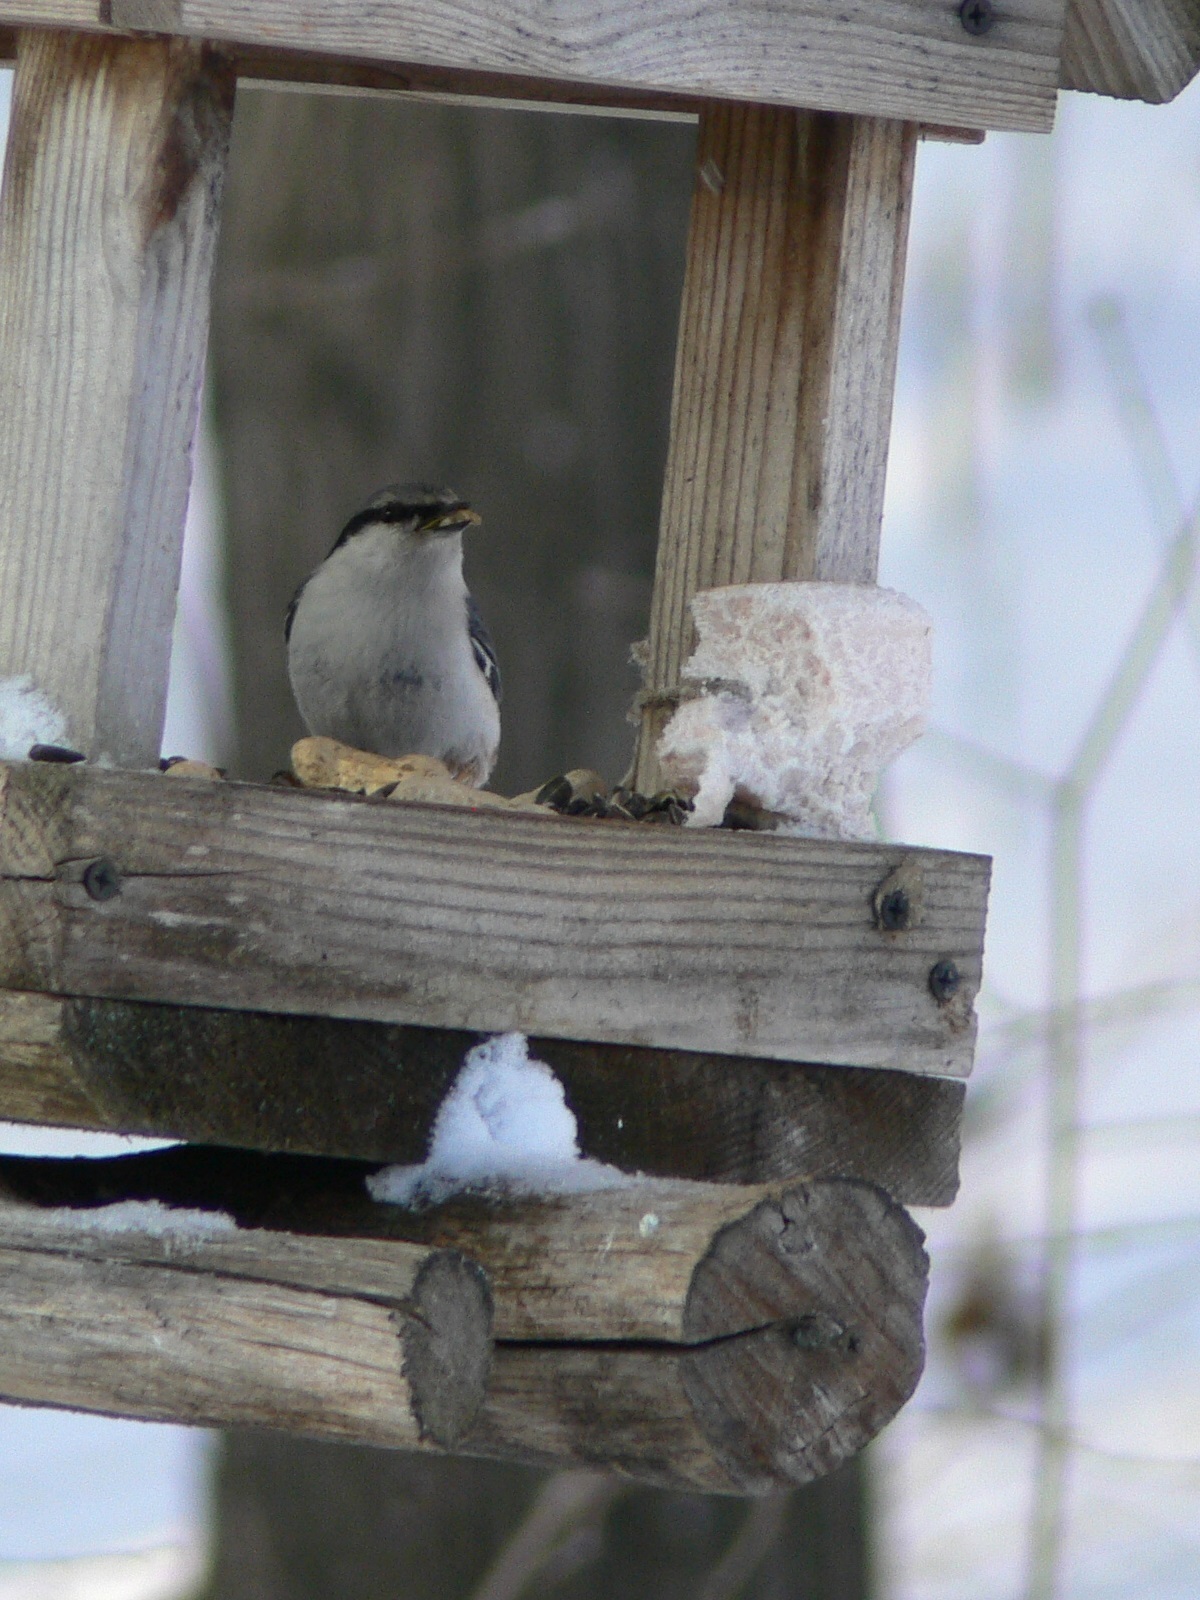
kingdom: Animalia
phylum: Chordata
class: Aves
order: Passeriformes
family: Sittidae
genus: Sitta
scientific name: Sitta europaea
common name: Eurasian nuthatch
